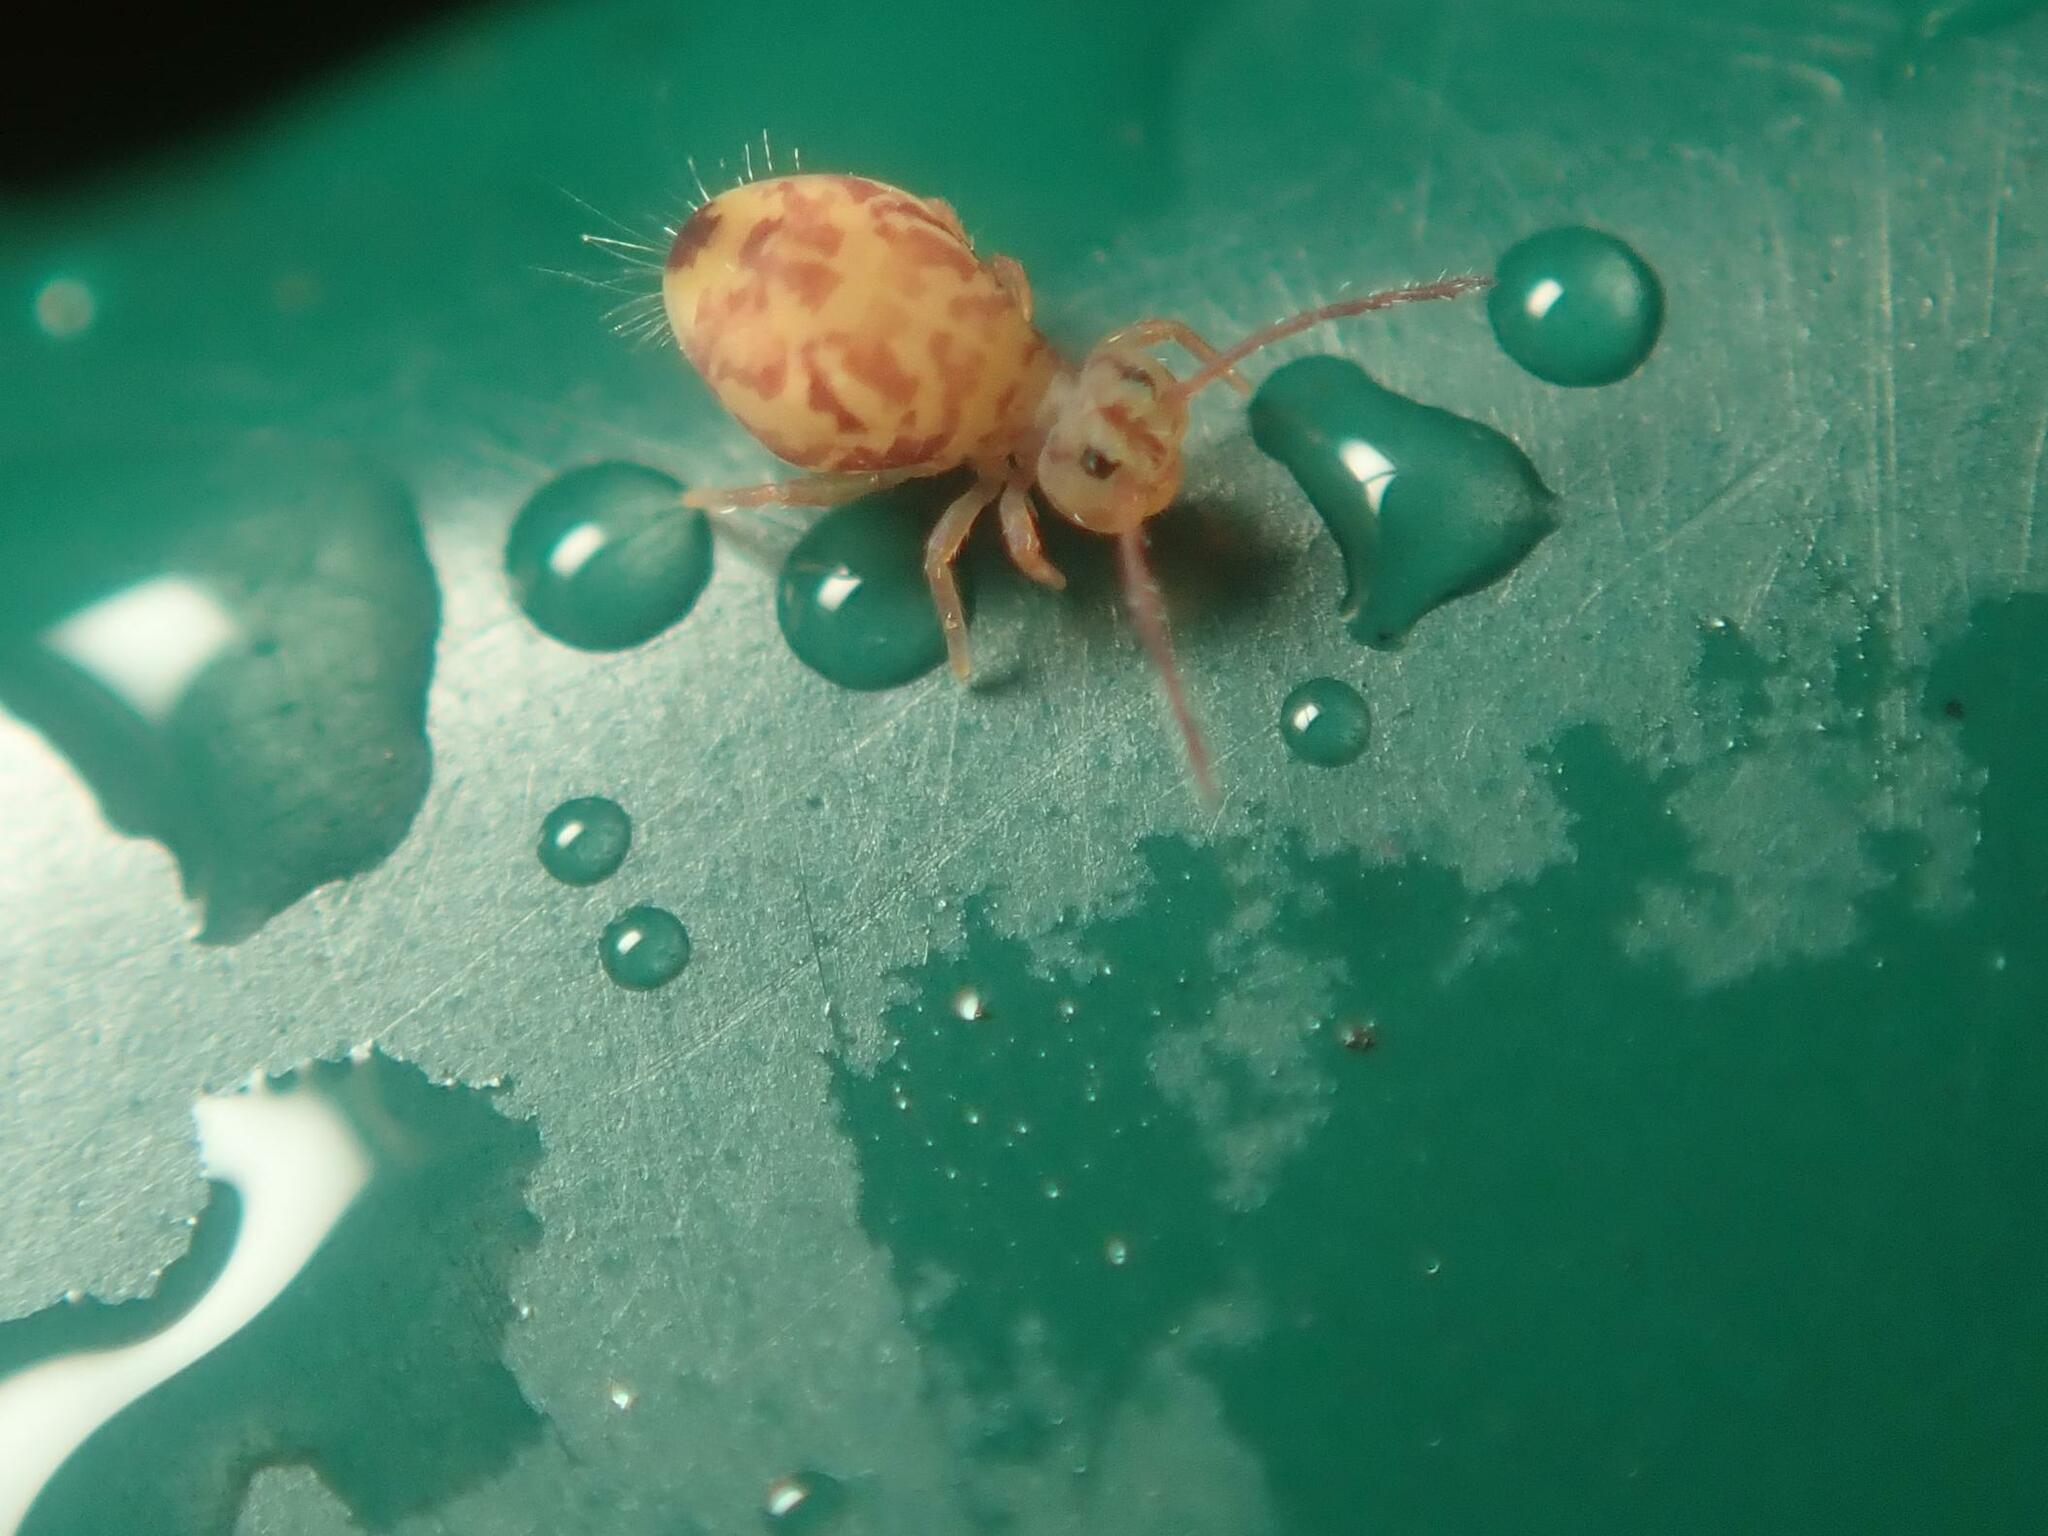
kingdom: Animalia
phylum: Arthropoda
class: Collembola
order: Symphypleona
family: Dicyrtomidae
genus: Dicyrtomina
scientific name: Dicyrtomina ornata
